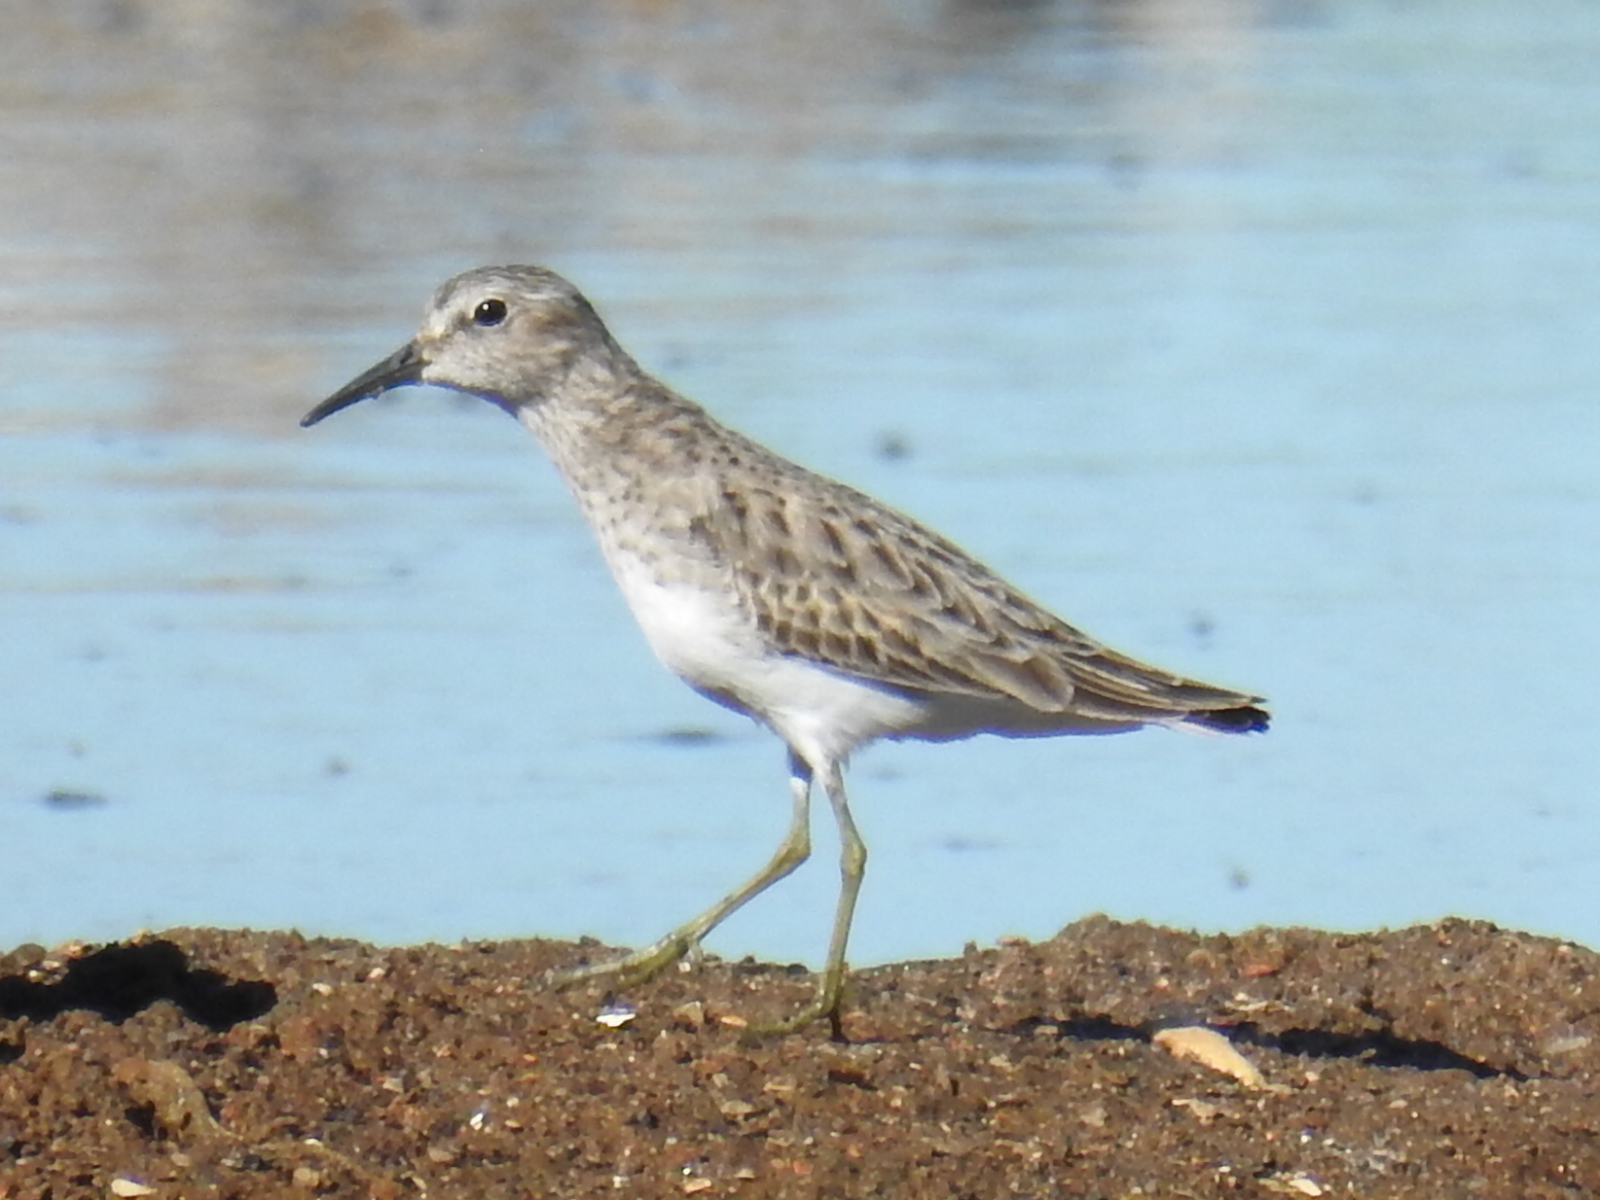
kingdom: Animalia
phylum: Chordata
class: Aves
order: Charadriiformes
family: Scolopacidae
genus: Calidris
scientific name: Calidris minutilla
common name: Least sandpiper
